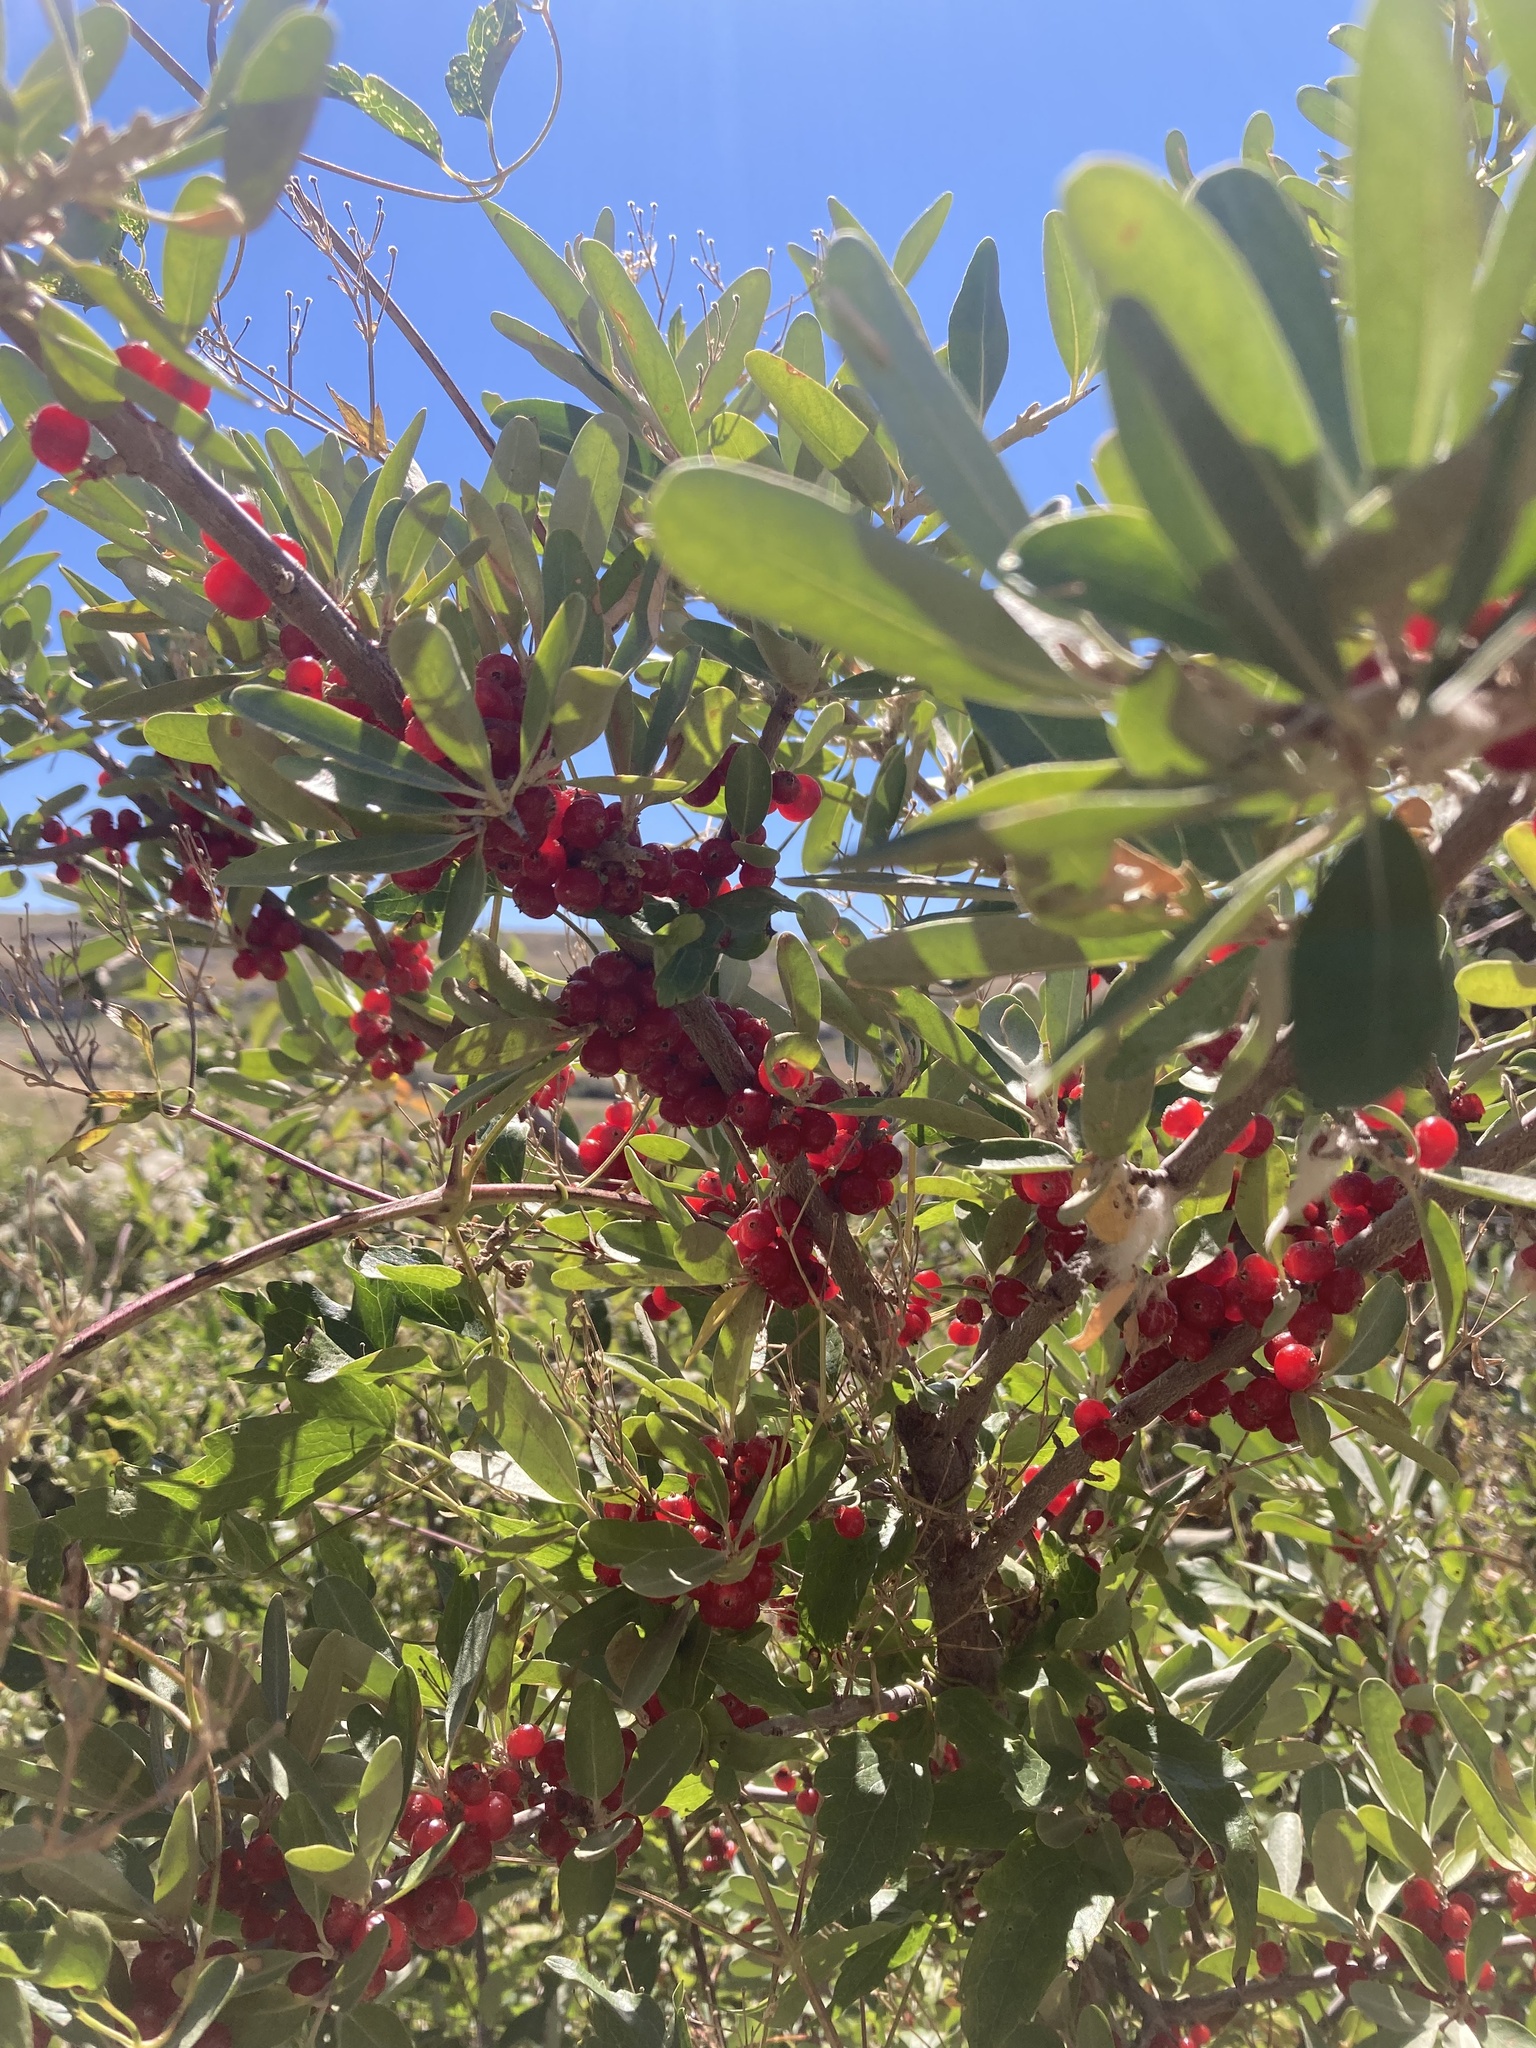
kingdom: Plantae
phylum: Tracheophyta
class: Magnoliopsida
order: Rosales
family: Elaeagnaceae
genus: Shepherdia
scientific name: Shepherdia argentea
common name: Silver buffaloberry
